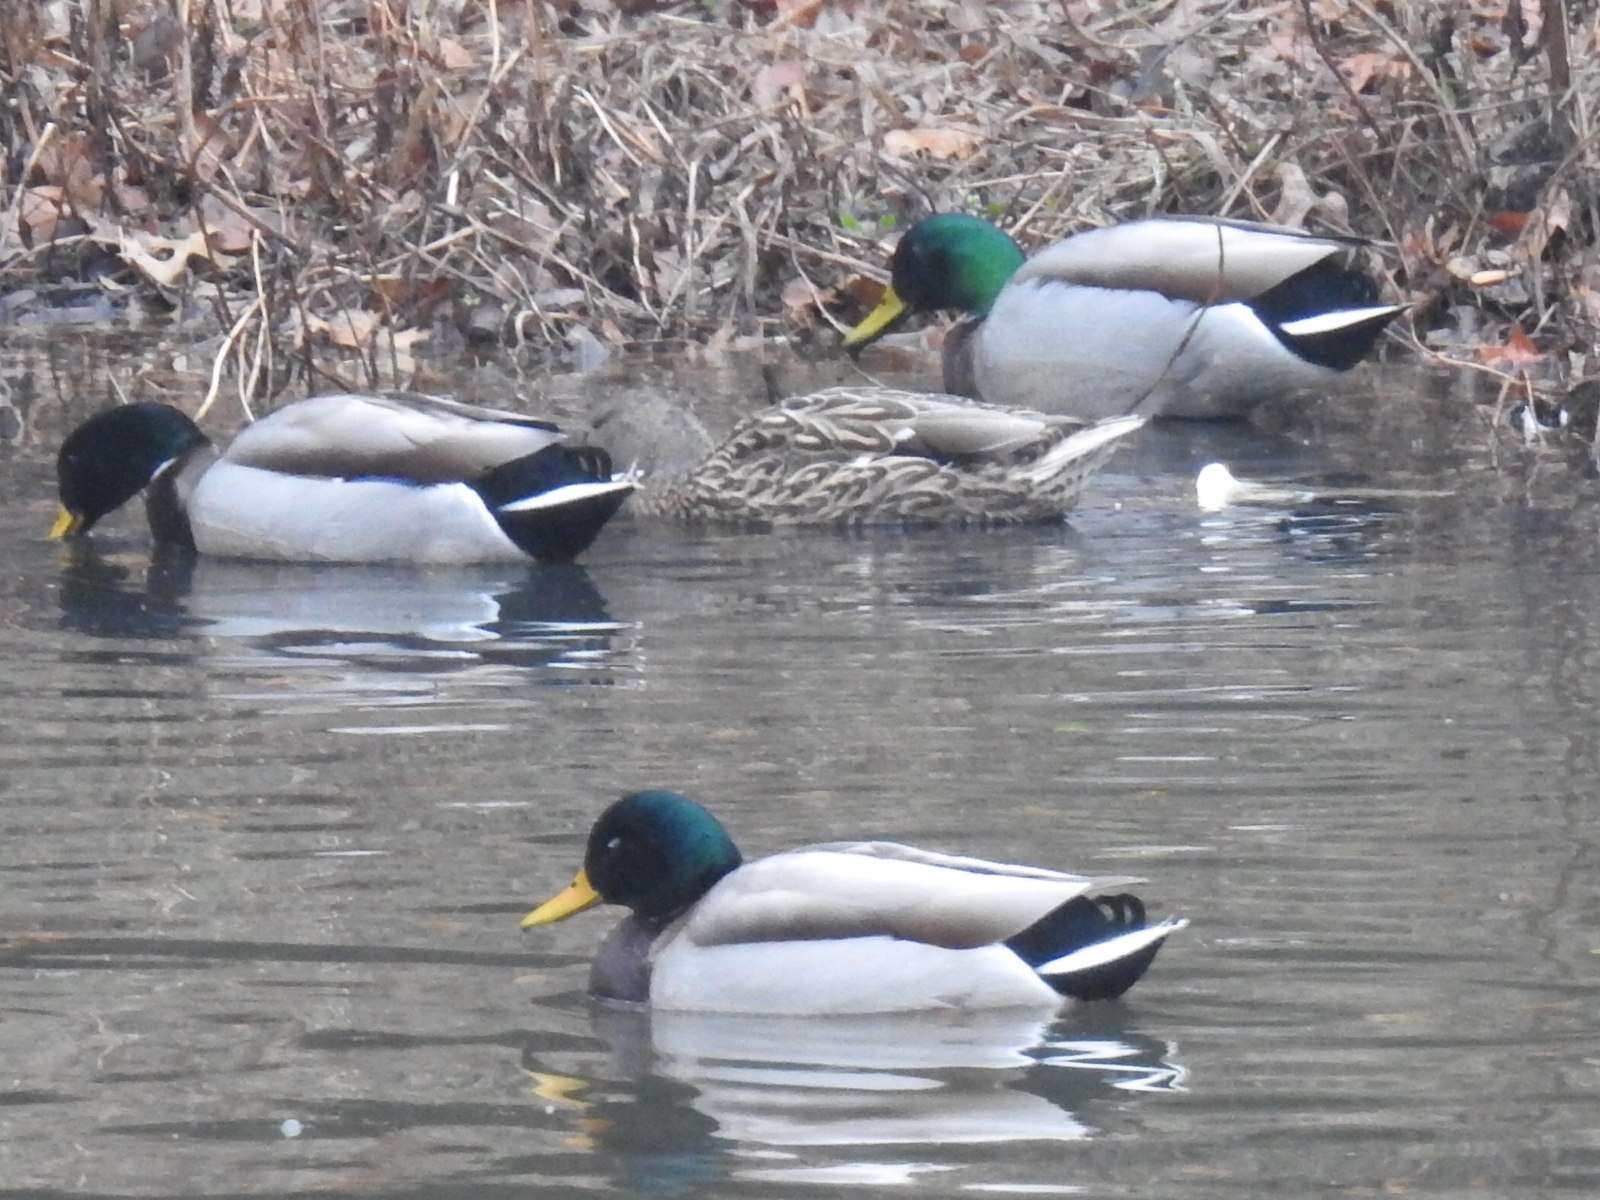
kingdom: Animalia
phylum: Chordata
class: Aves
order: Anseriformes
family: Anatidae
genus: Anas
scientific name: Anas platyrhynchos
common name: Mallard
